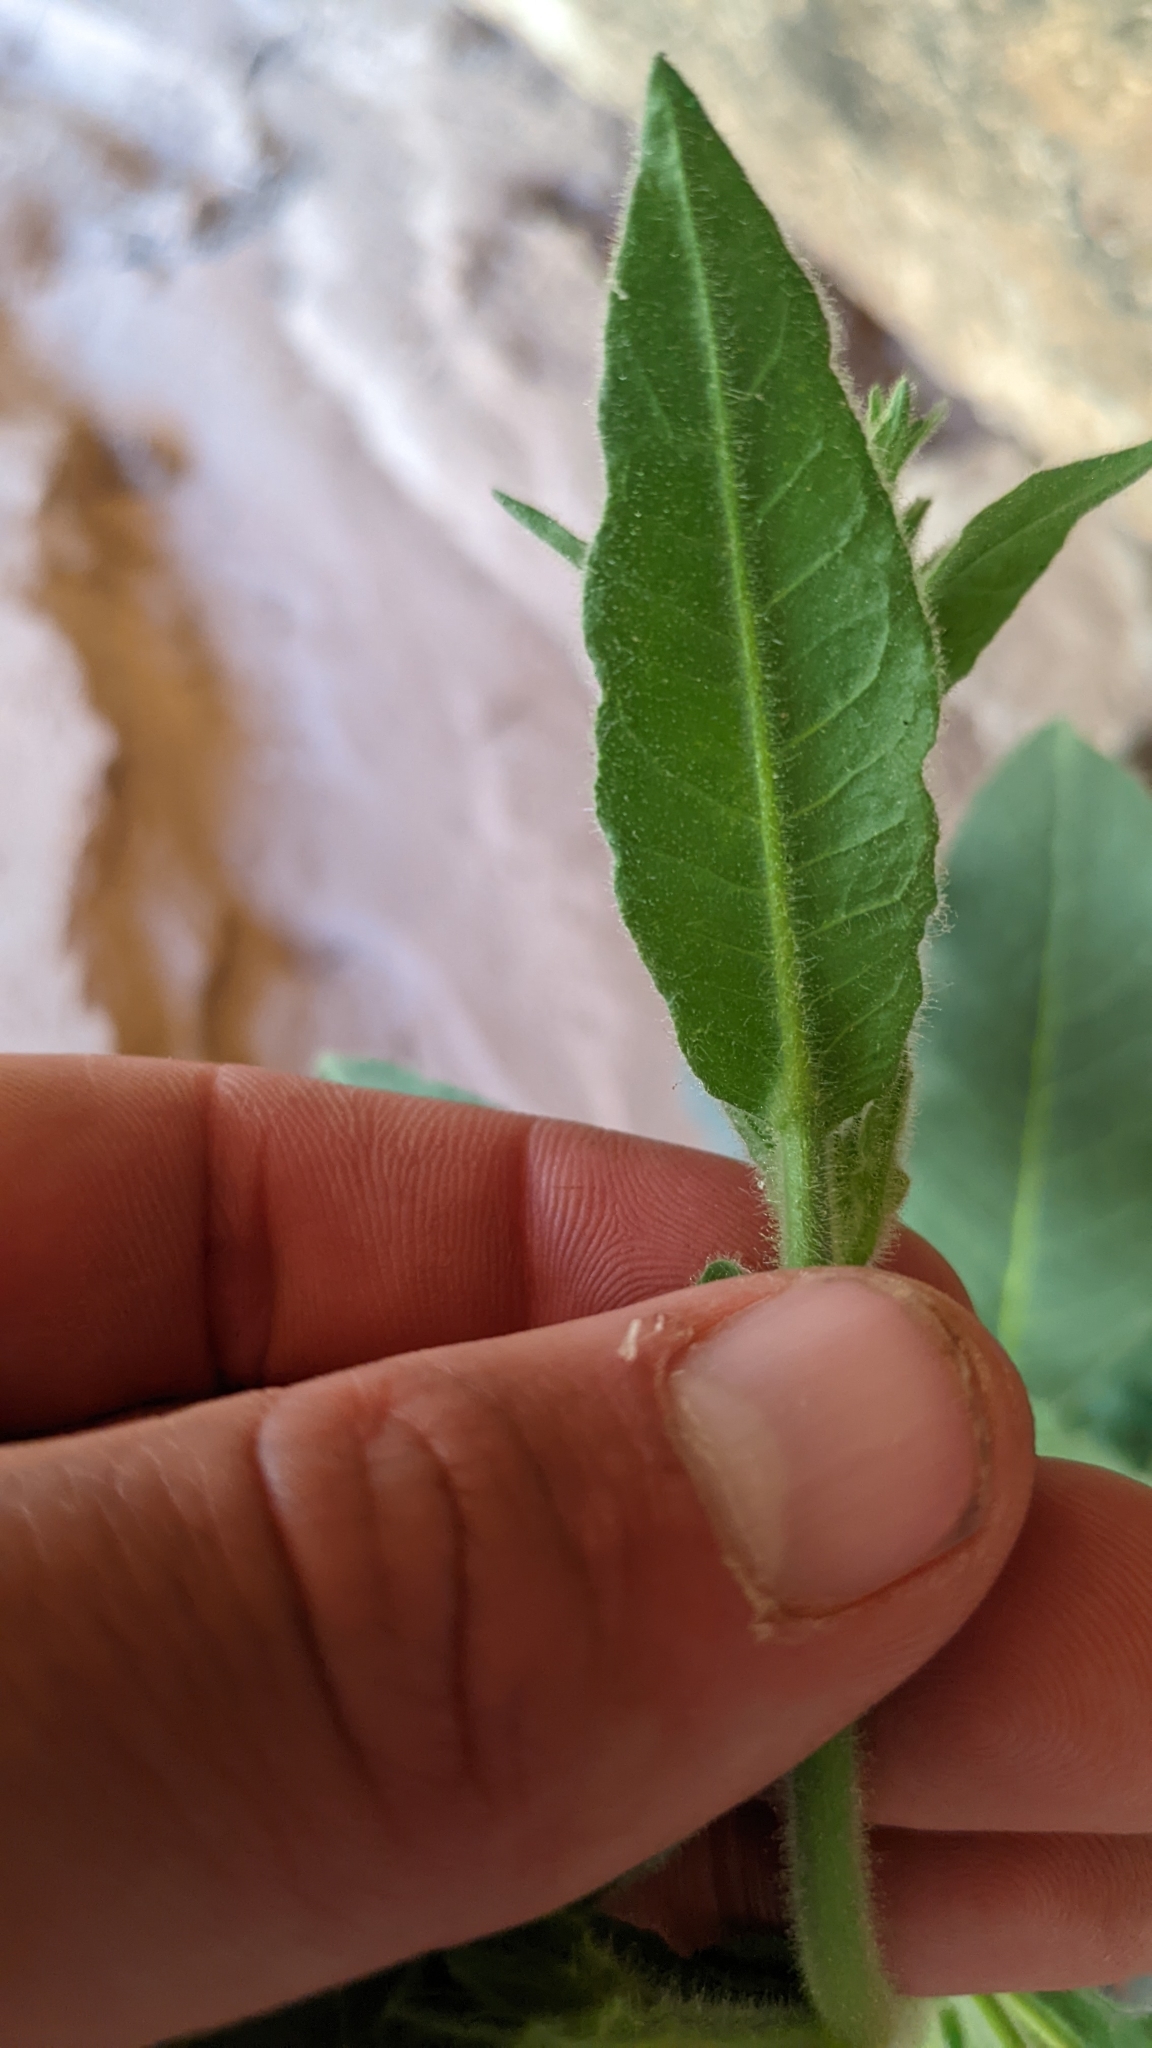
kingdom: Plantae
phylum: Tracheophyta
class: Magnoliopsida
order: Solanales
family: Solanaceae
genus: Nicotiana
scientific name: Nicotiana obtusifolia
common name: Desert tobacco
